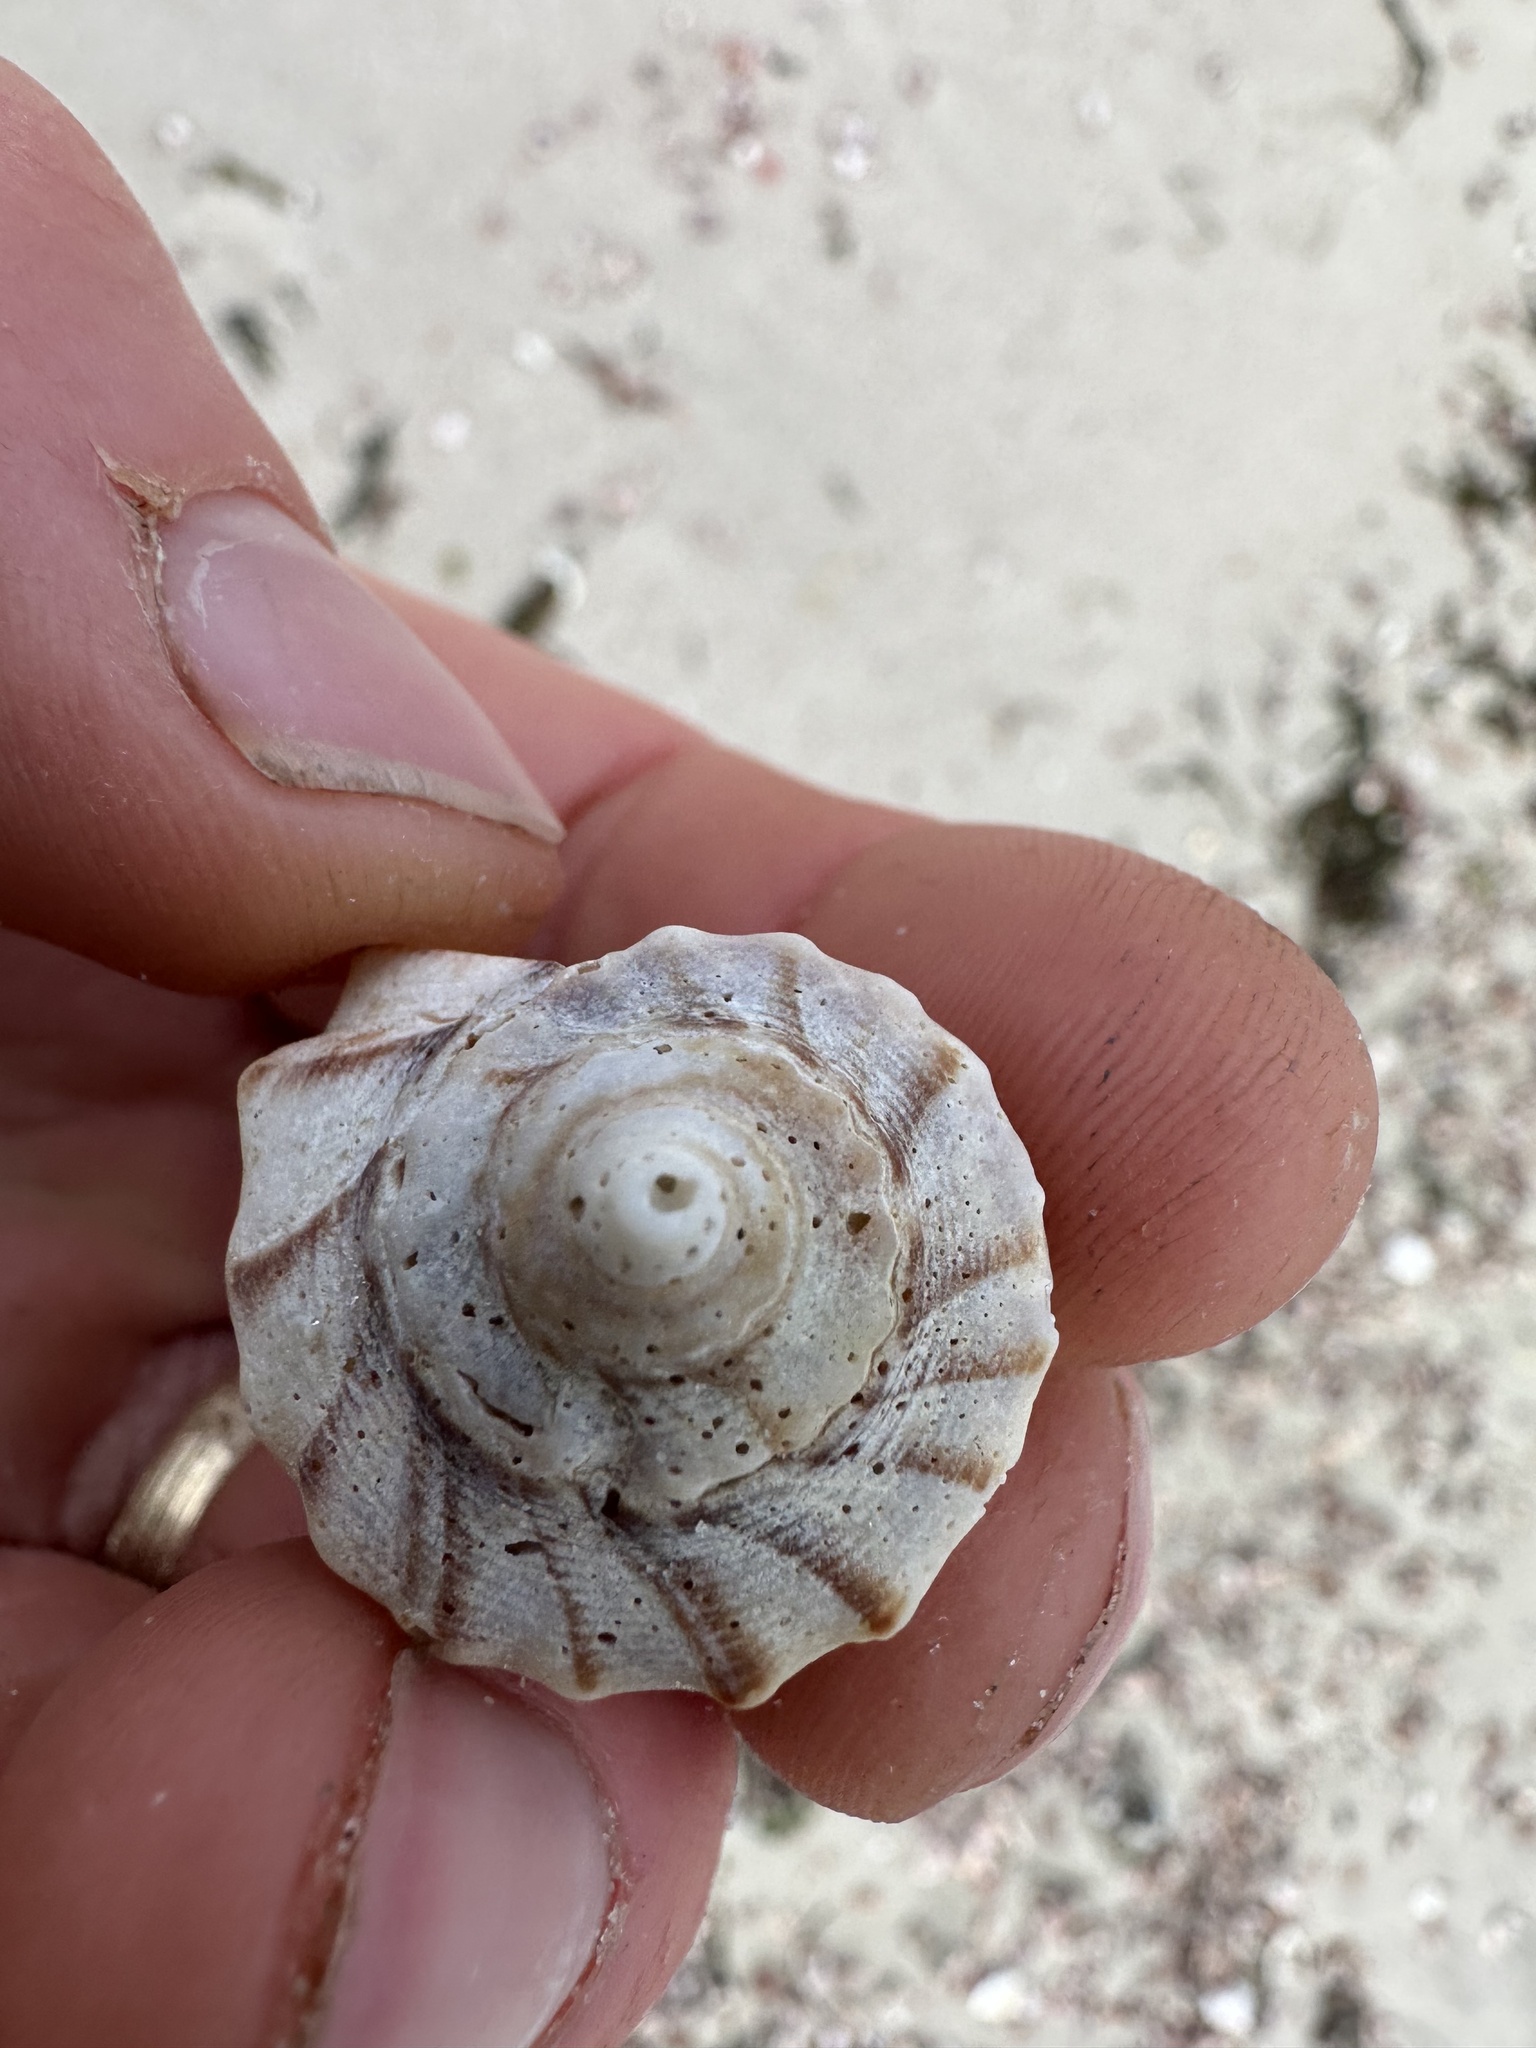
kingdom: Animalia
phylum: Mollusca
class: Gastropoda
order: Neogastropoda
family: Busyconidae
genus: Busycon
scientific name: Busycon carica
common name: Knobbed whelk
